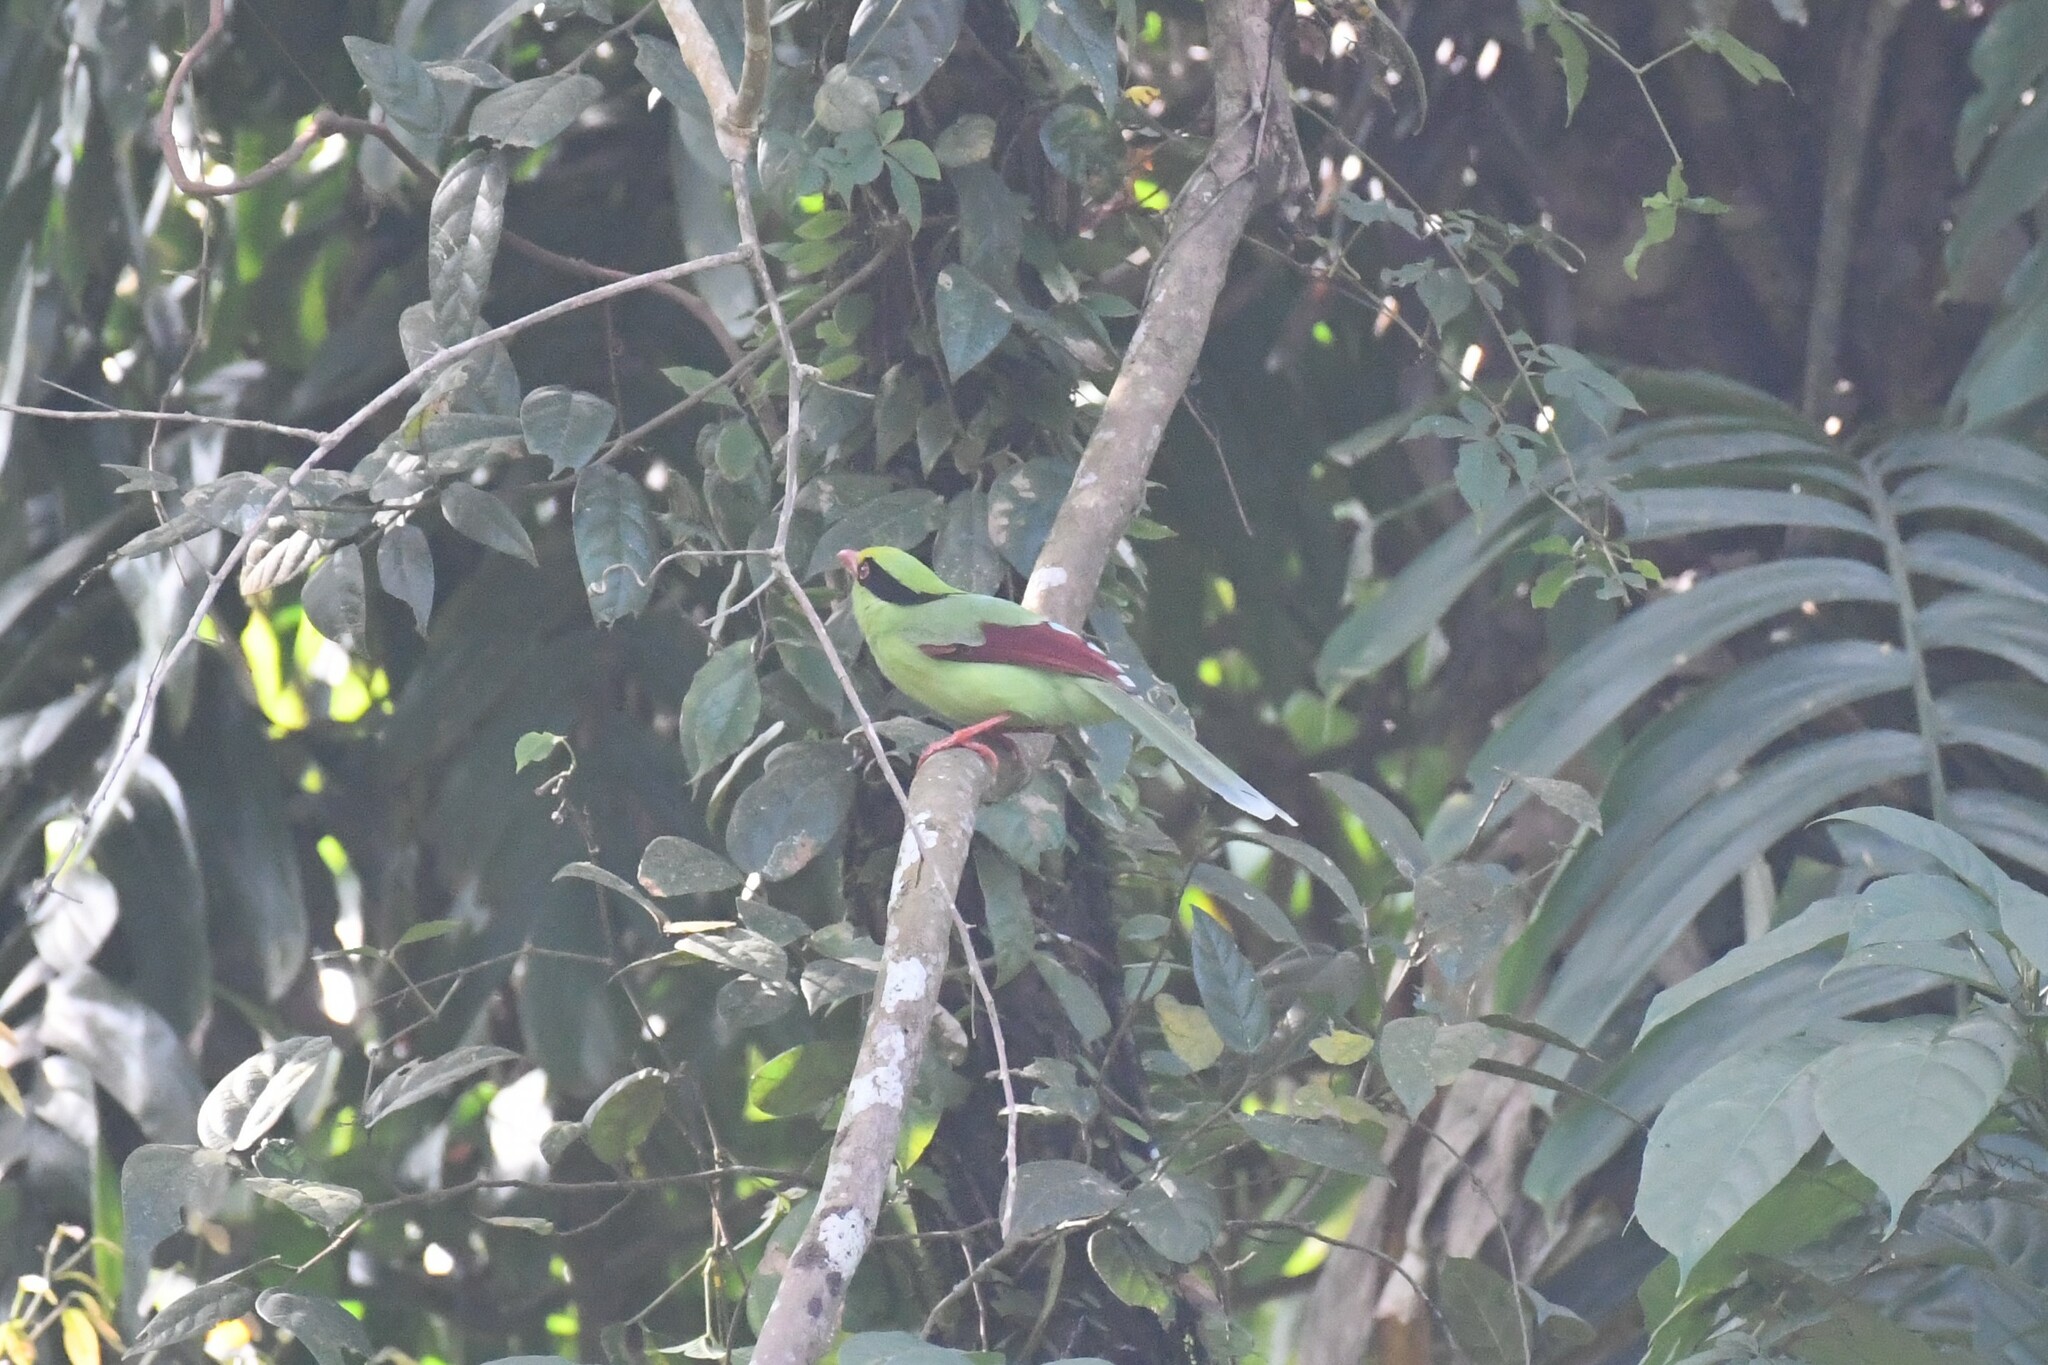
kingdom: Animalia
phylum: Chordata
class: Aves
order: Passeriformes
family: Corvidae
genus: Cissa
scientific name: Cissa chinensis
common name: Common green magpie
